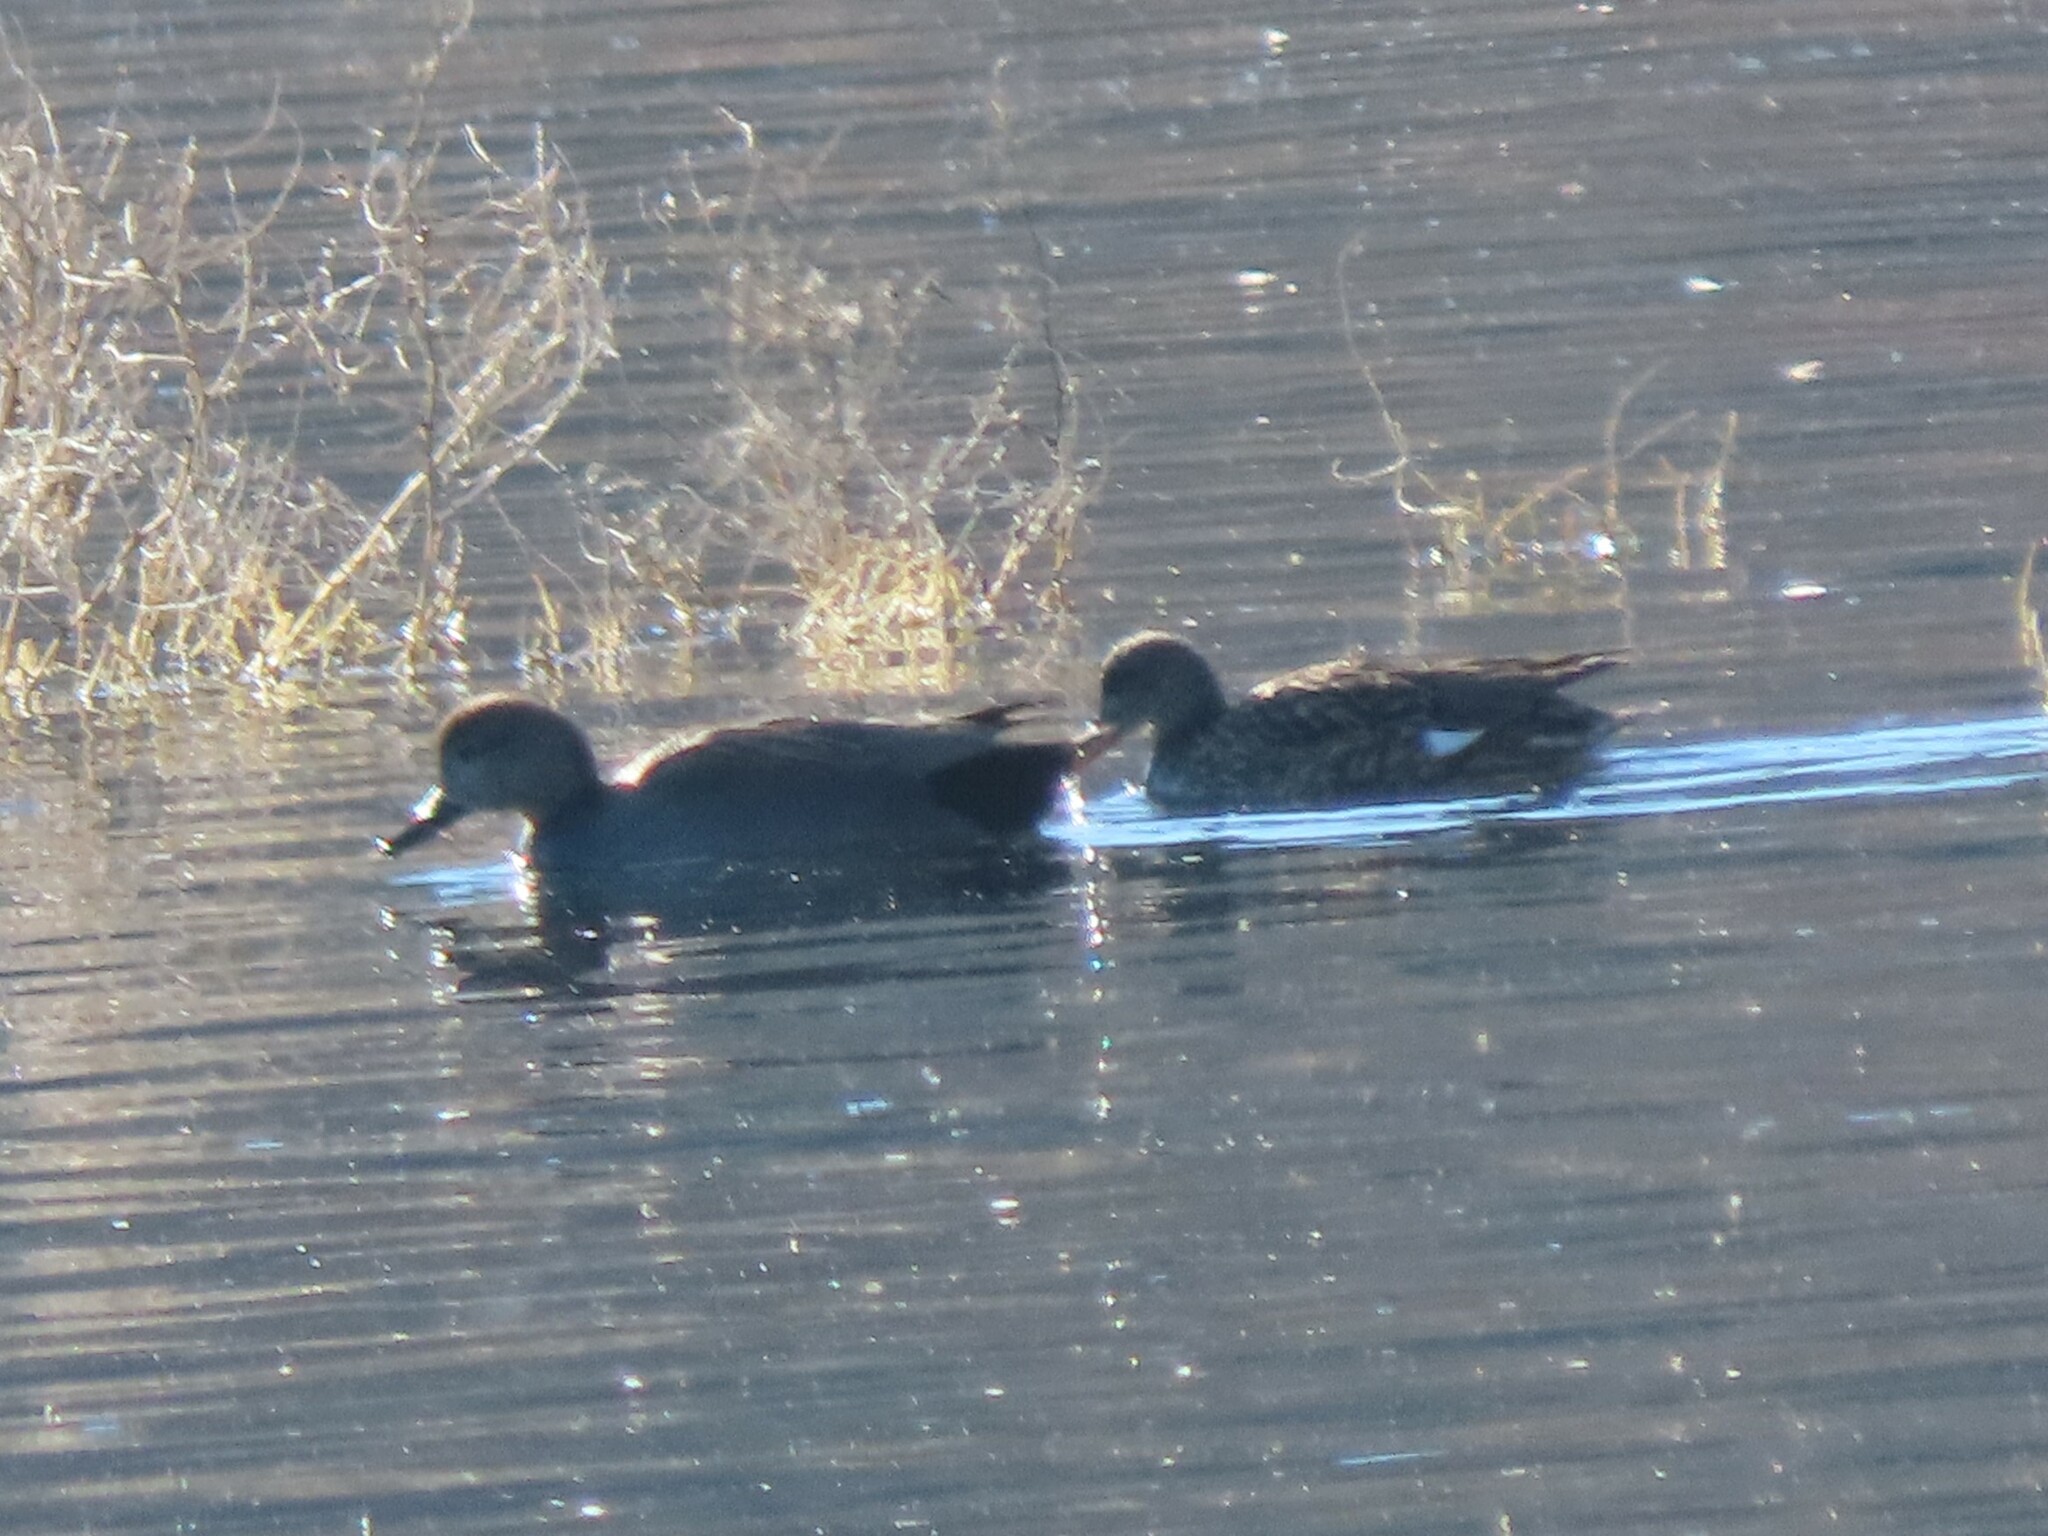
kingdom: Animalia
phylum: Chordata
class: Aves
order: Anseriformes
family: Anatidae
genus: Mareca
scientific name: Mareca strepera
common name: Gadwall
